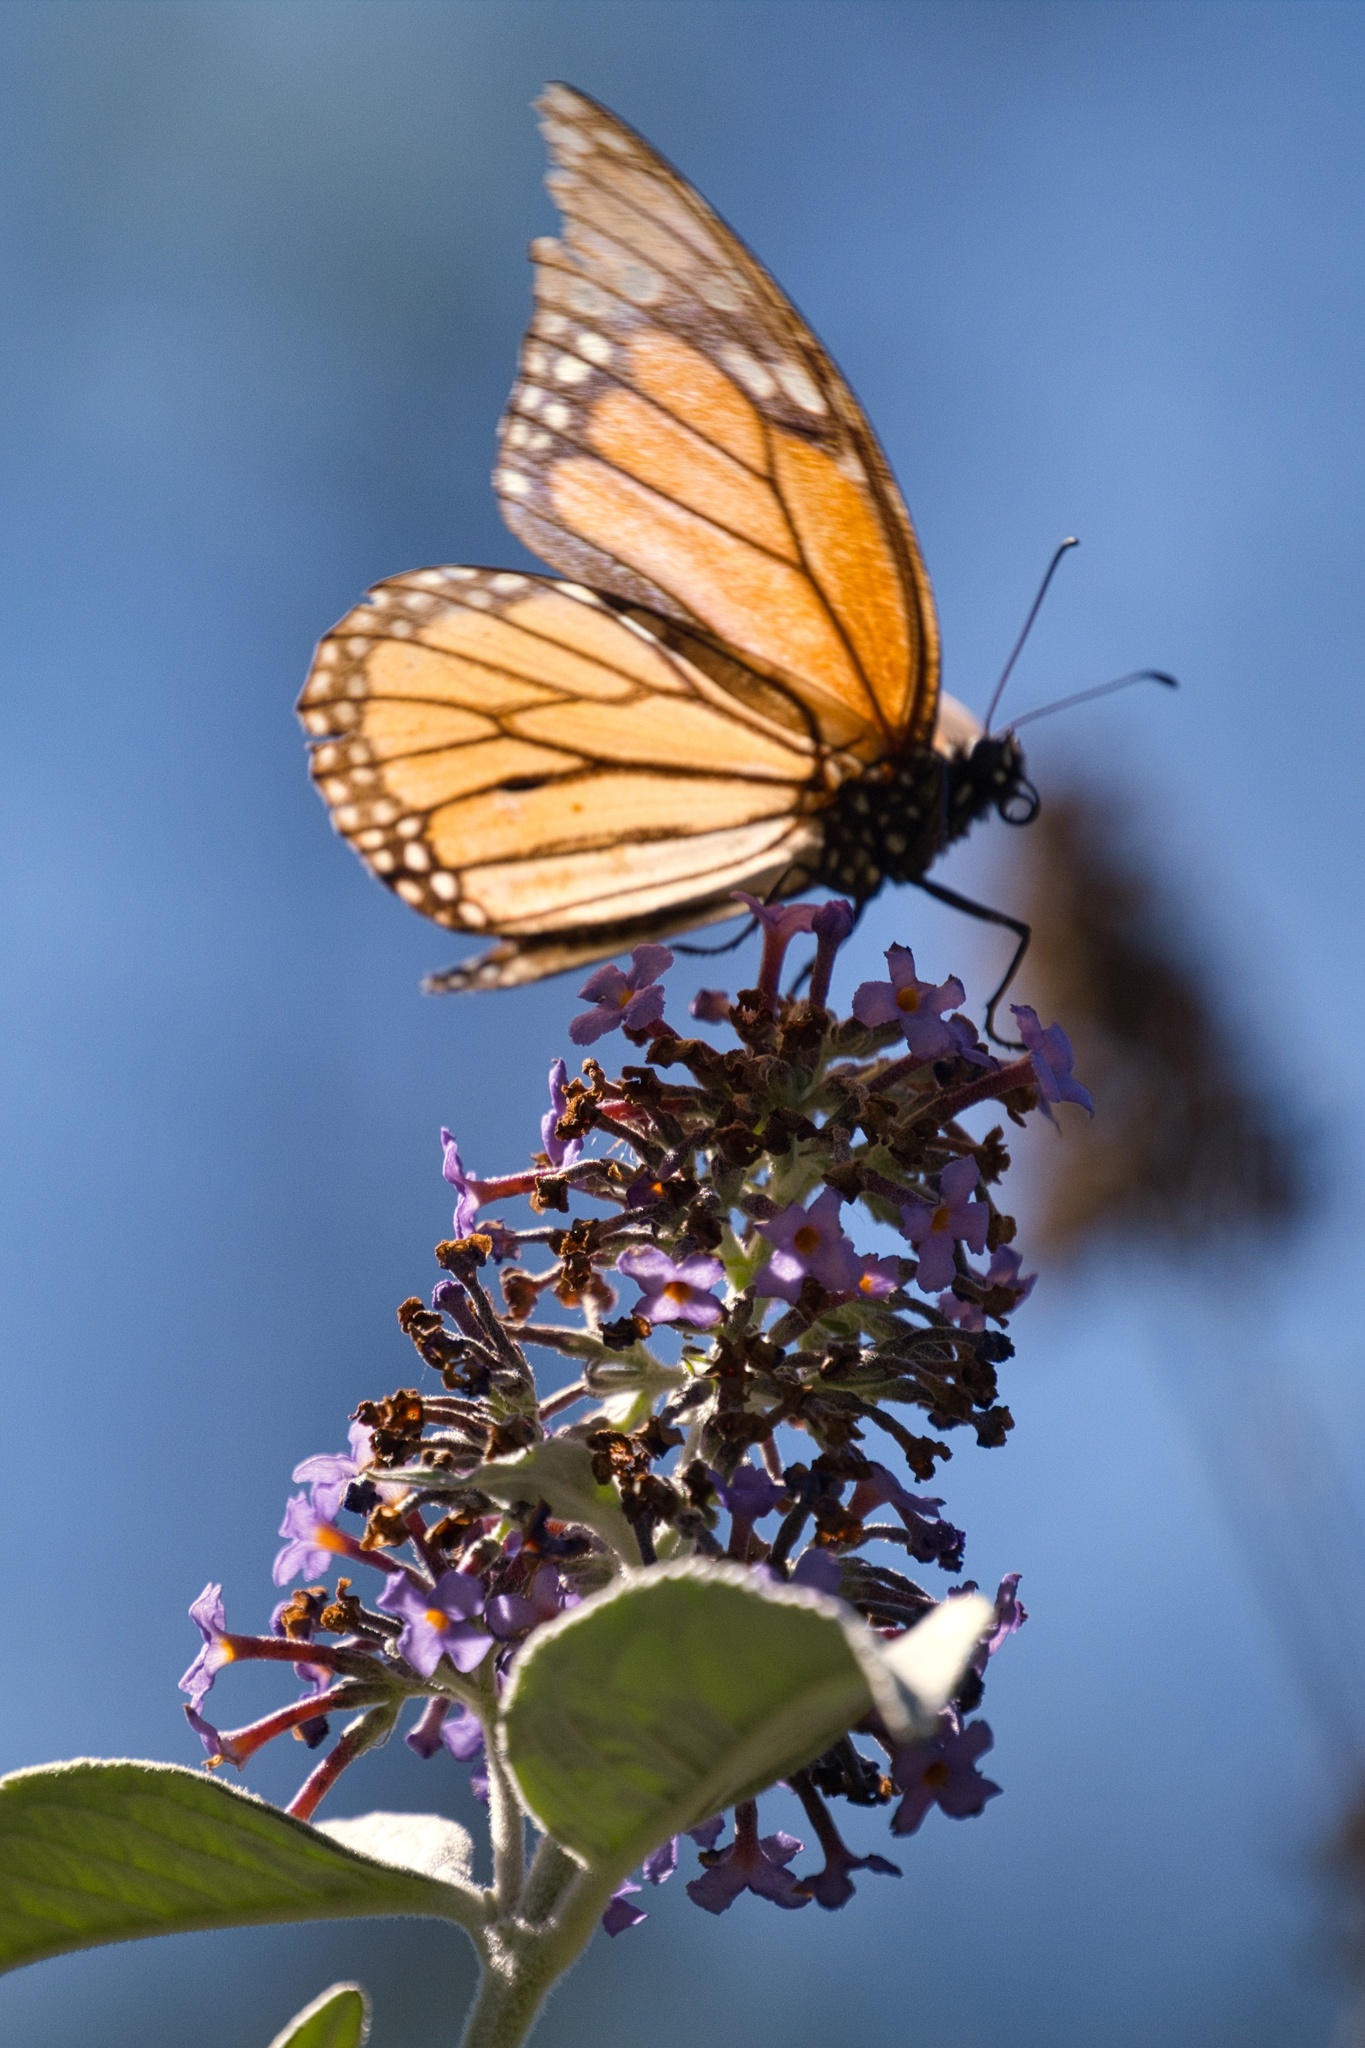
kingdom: Animalia
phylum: Arthropoda
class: Insecta
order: Lepidoptera
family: Nymphalidae
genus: Danaus
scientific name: Danaus plexippus
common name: Monarch
